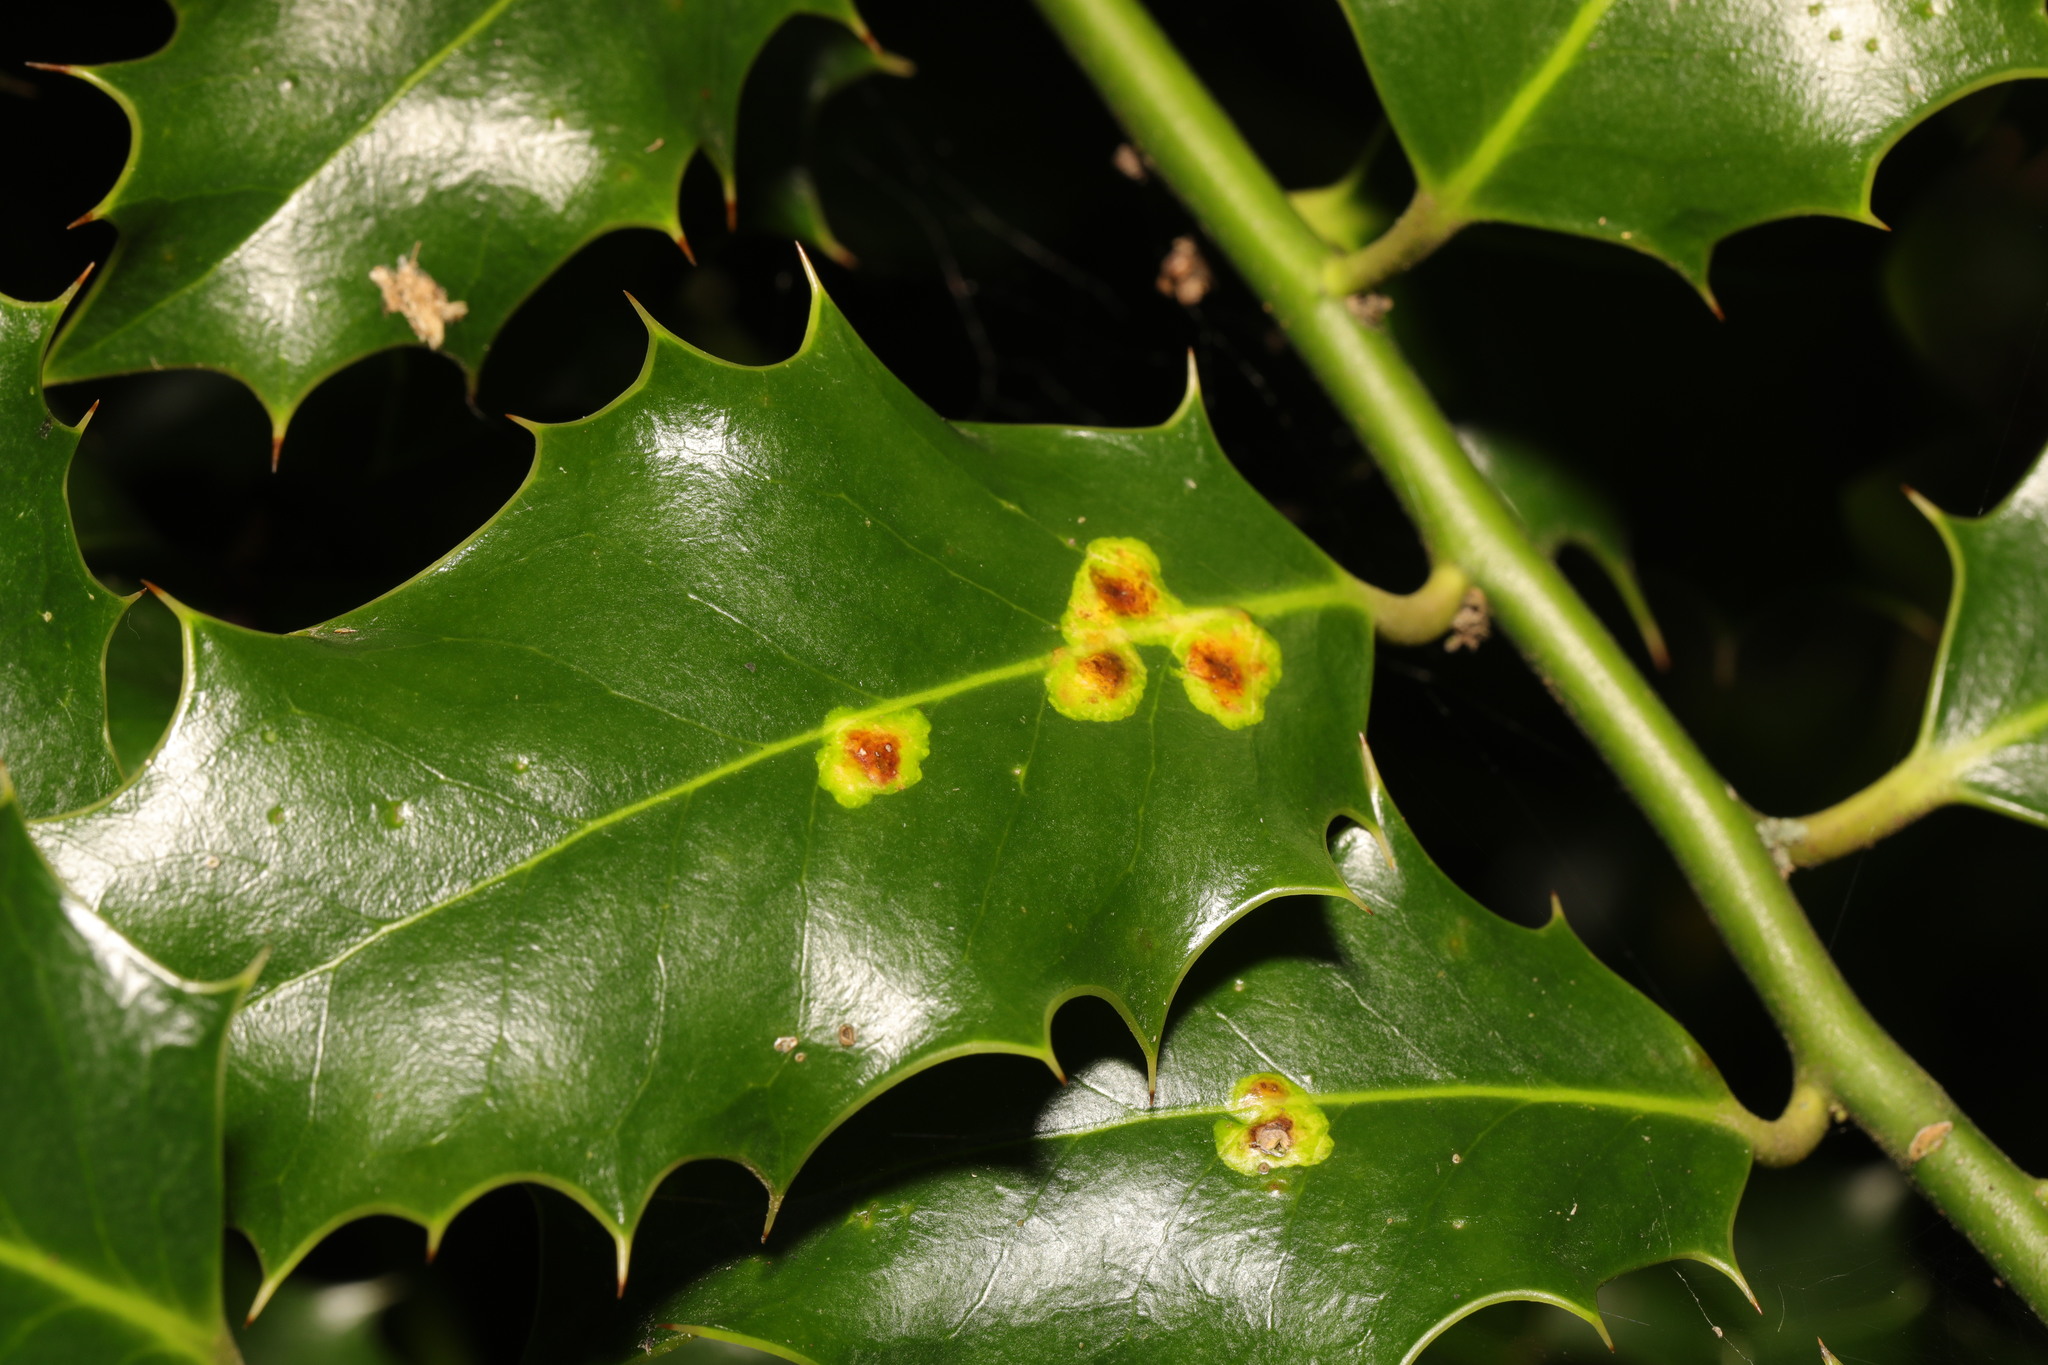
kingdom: Animalia
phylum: Arthropoda
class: Insecta
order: Diptera
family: Agromyzidae
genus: Phytomyza
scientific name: Phytomyza ilicis
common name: Holly leafminer
